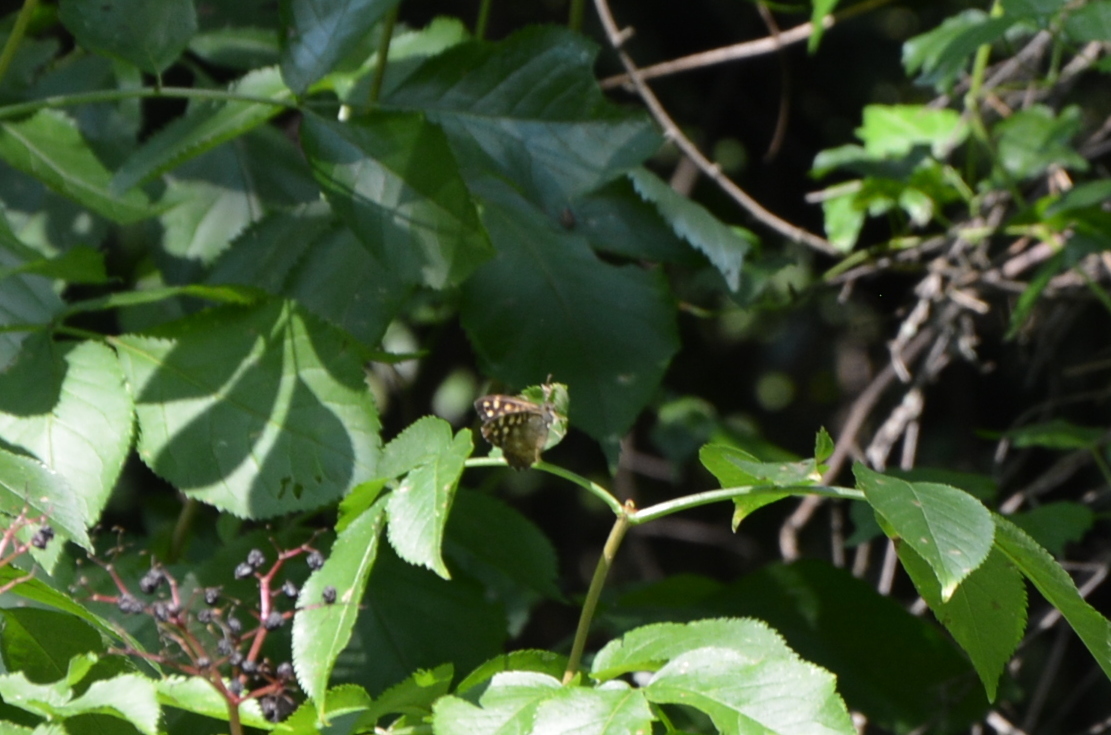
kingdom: Animalia
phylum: Arthropoda
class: Insecta
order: Lepidoptera
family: Nymphalidae
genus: Pararge
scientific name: Pararge aegeria
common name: Speckled wood
